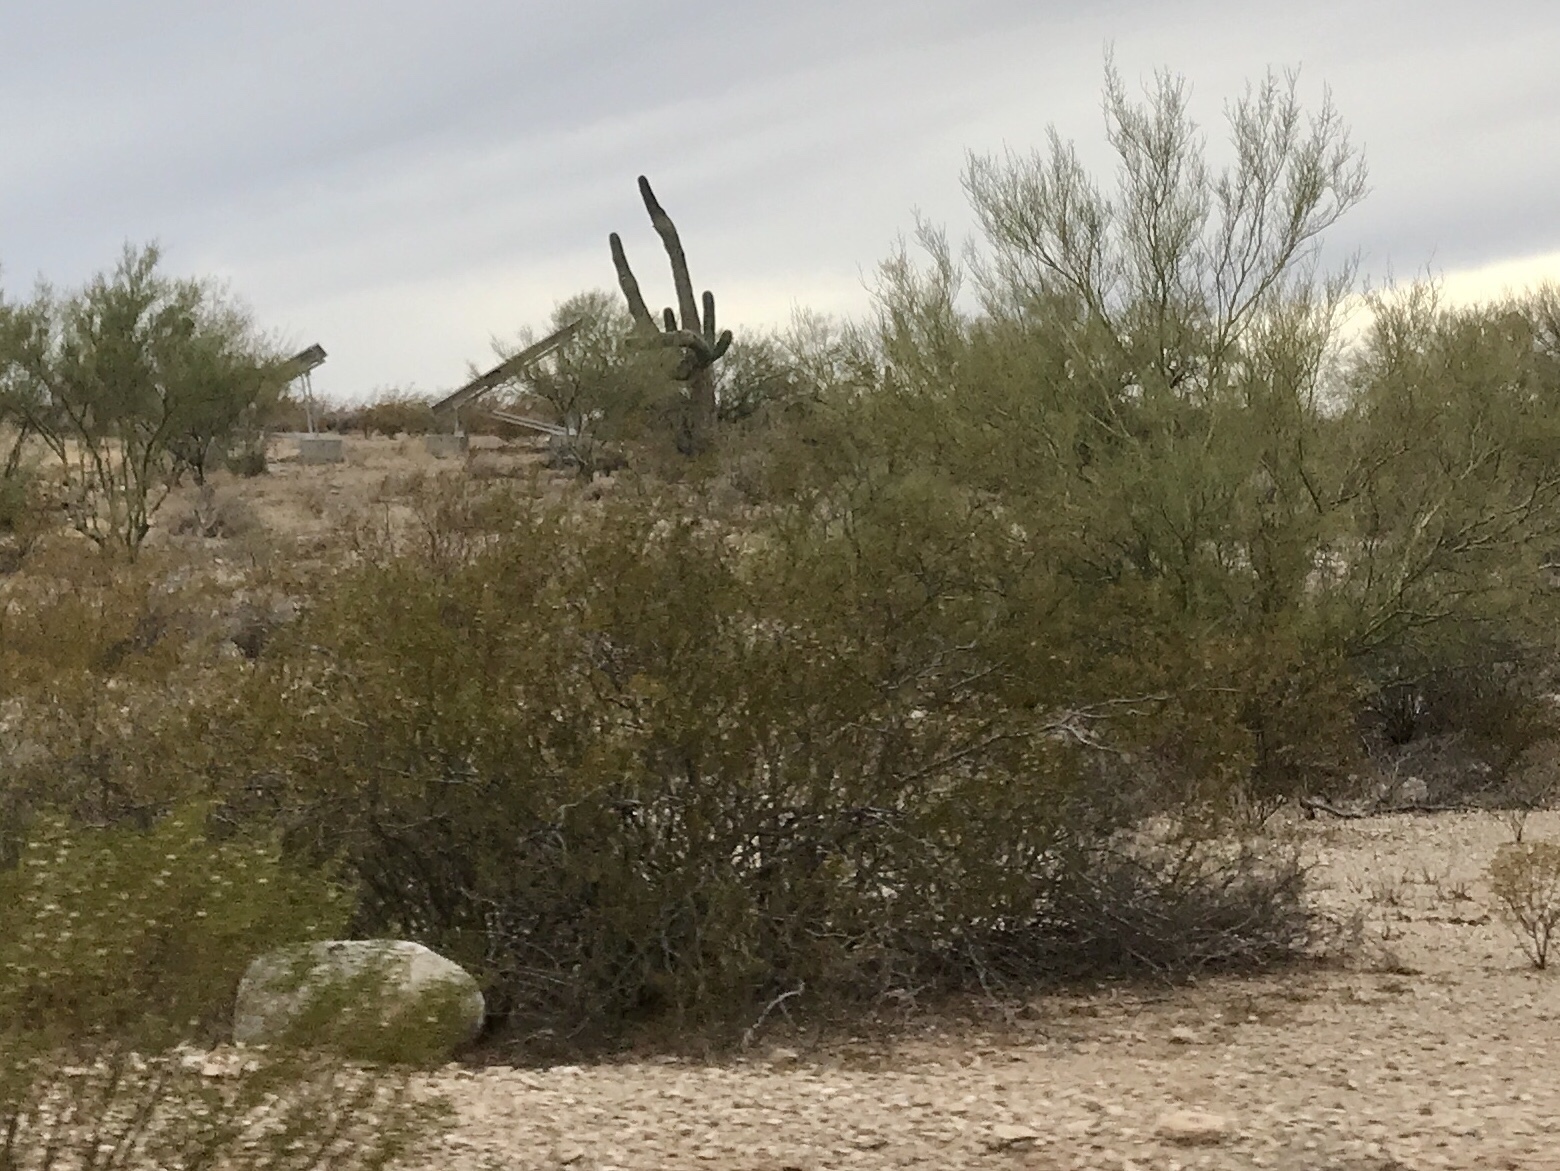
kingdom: Plantae
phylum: Tracheophyta
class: Magnoliopsida
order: Zygophyllales
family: Zygophyllaceae
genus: Larrea
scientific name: Larrea tridentata
